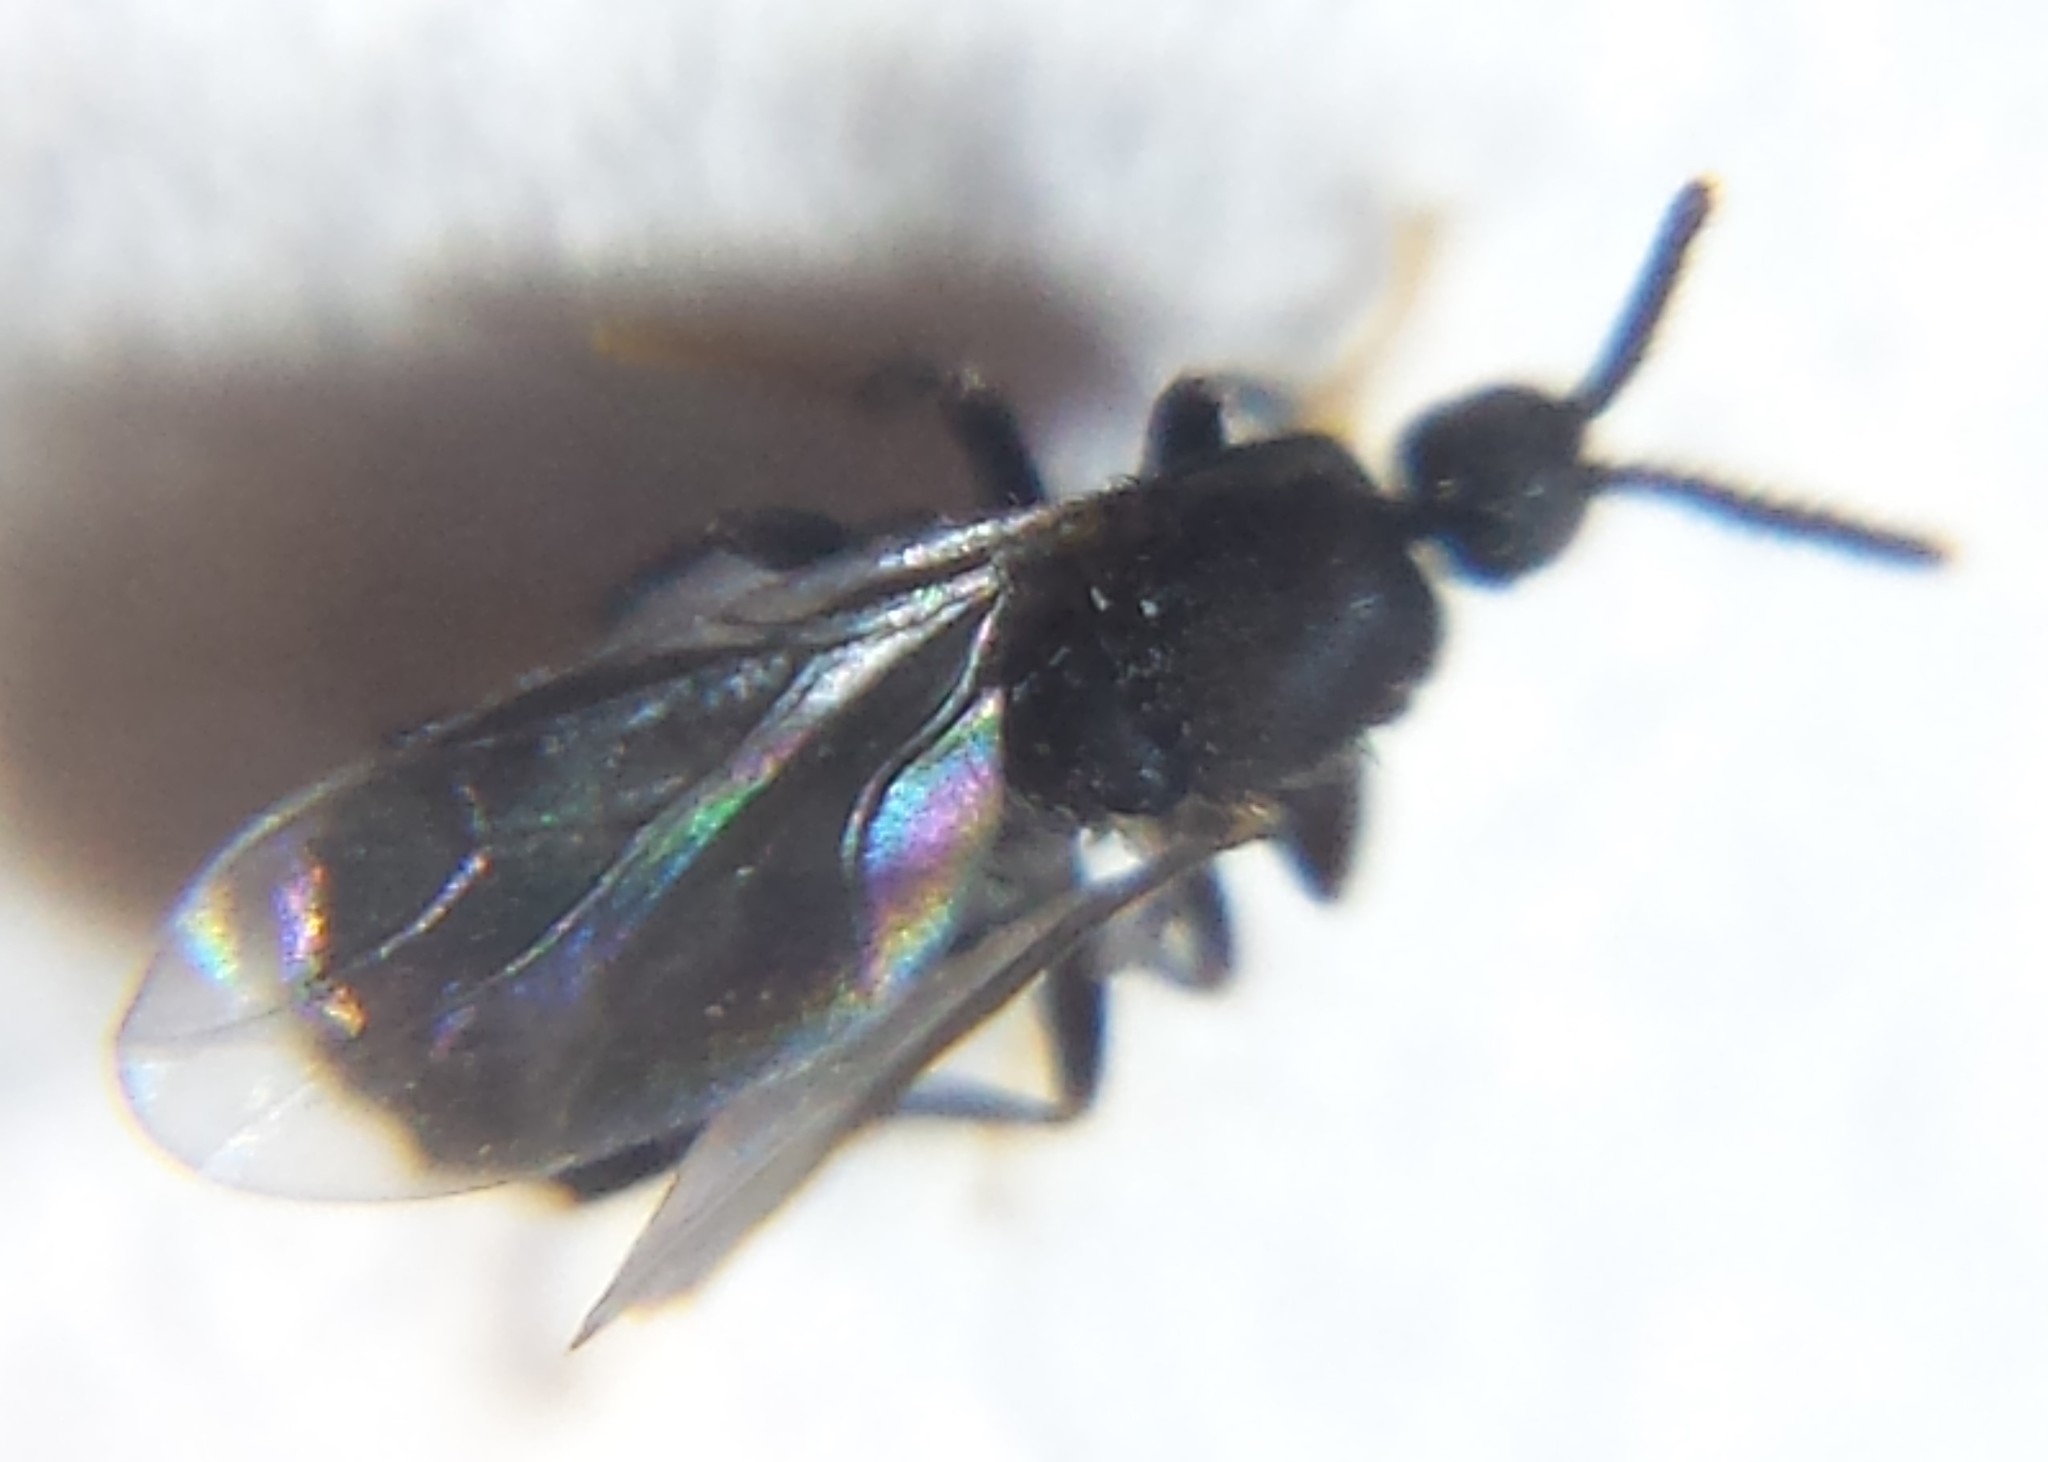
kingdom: Animalia
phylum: Arthropoda
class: Insecta
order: Diptera
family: Scatopsidae
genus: Holoplagia
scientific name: Holoplagia guamensis
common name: Fly
